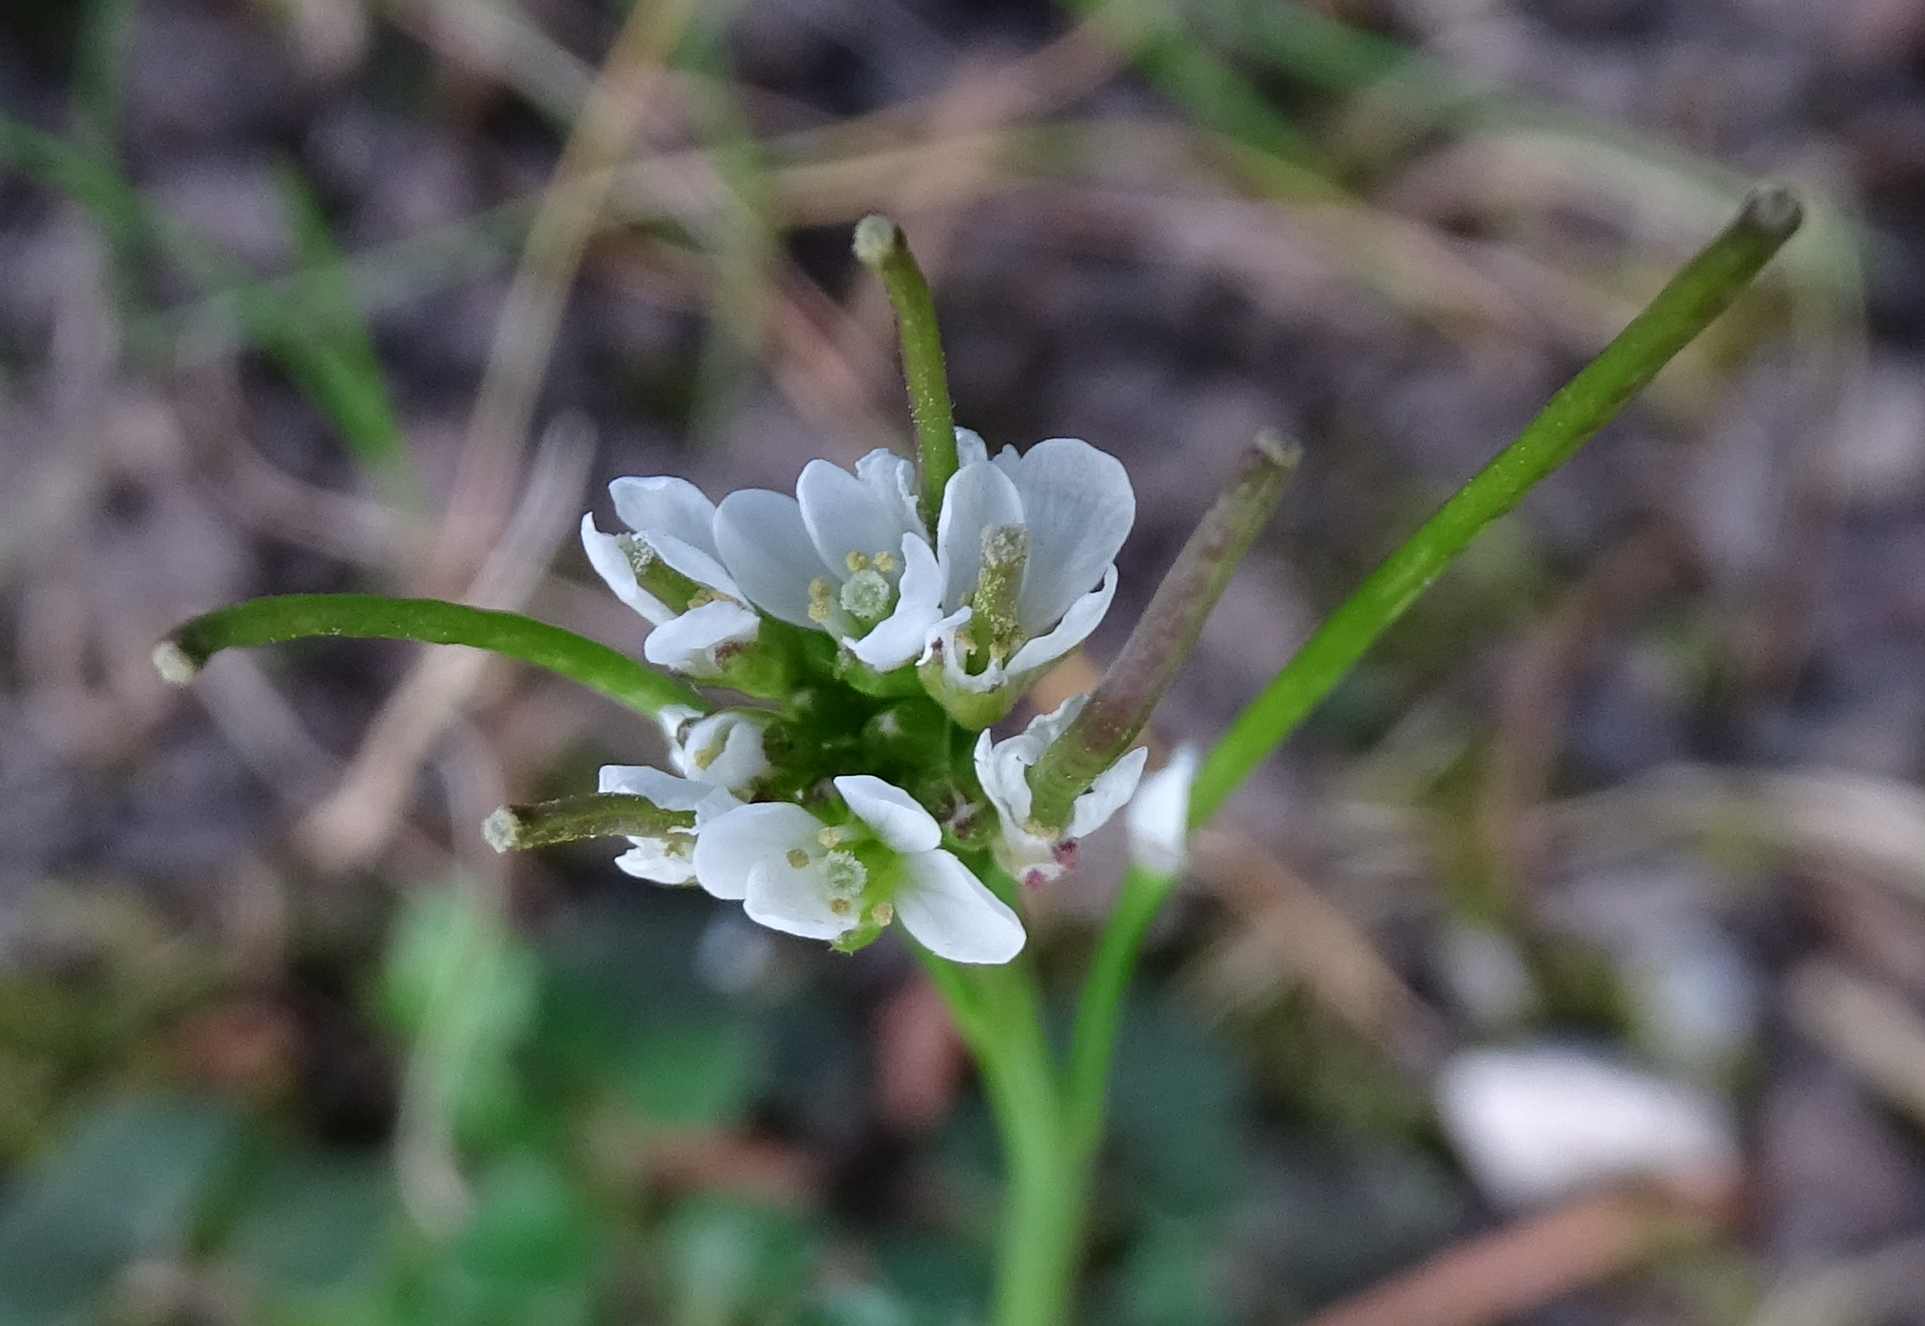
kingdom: Plantae
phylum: Tracheophyta
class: Magnoliopsida
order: Brassicales
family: Brassicaceae
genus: Cardamine
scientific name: Cardamine hirsuta
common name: Hairy bittercress
